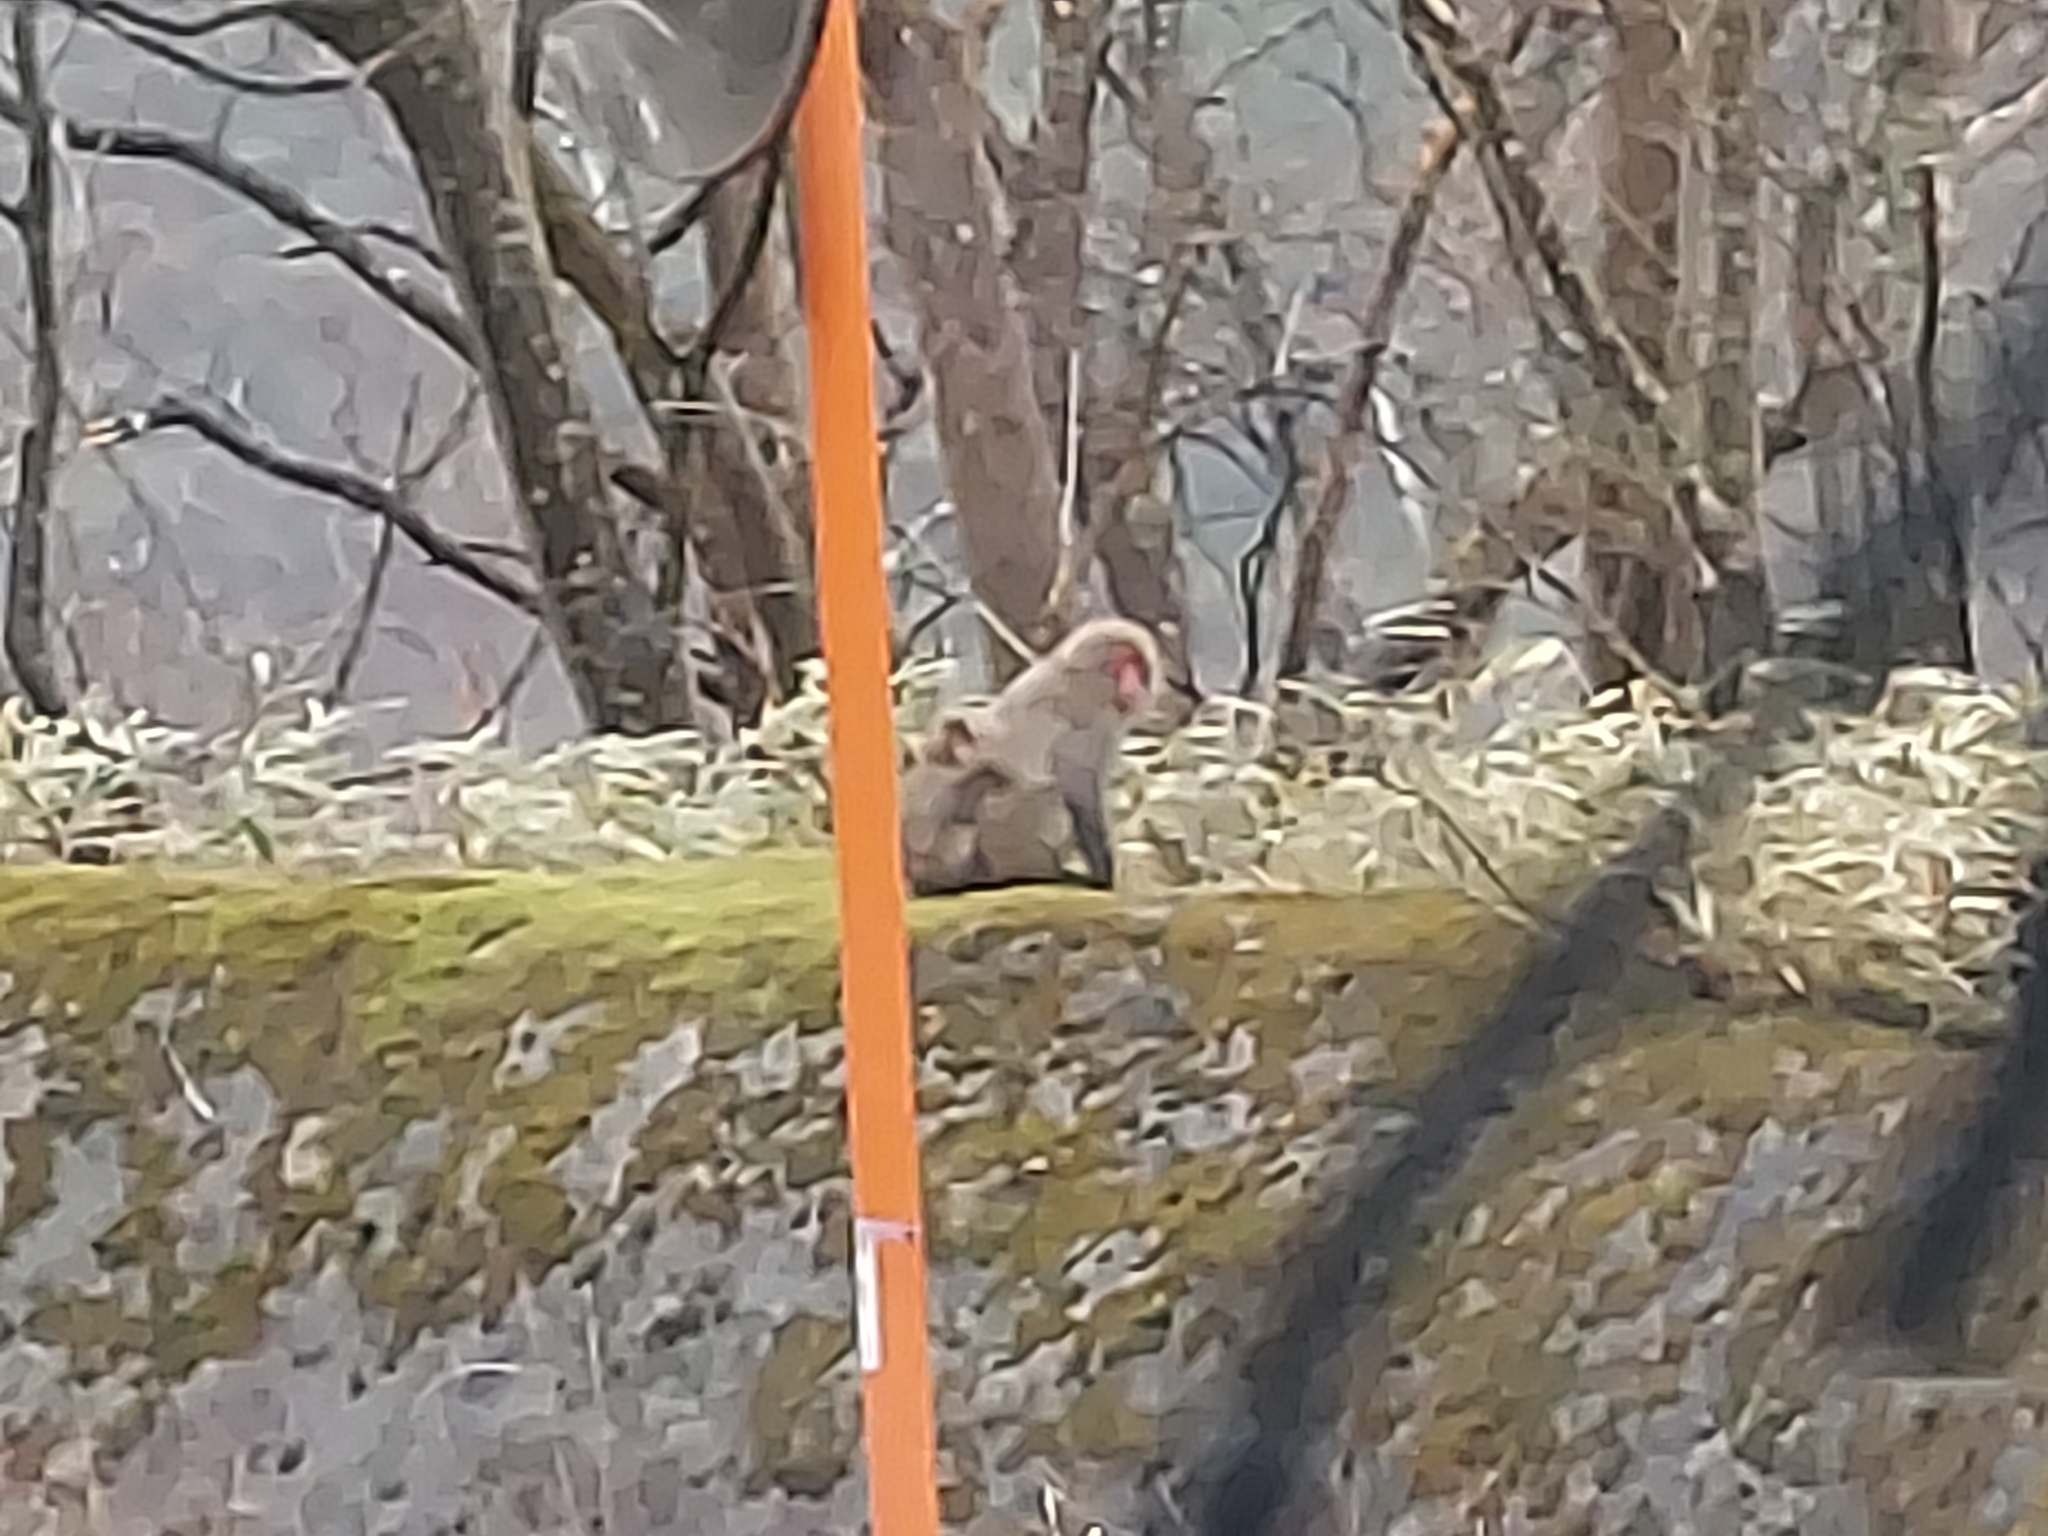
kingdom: Animalia
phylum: Chordata
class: Mammalia
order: Primates
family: Cercopithecidae
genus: Macaca
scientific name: Macaca fuscata
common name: Japanese macaque
